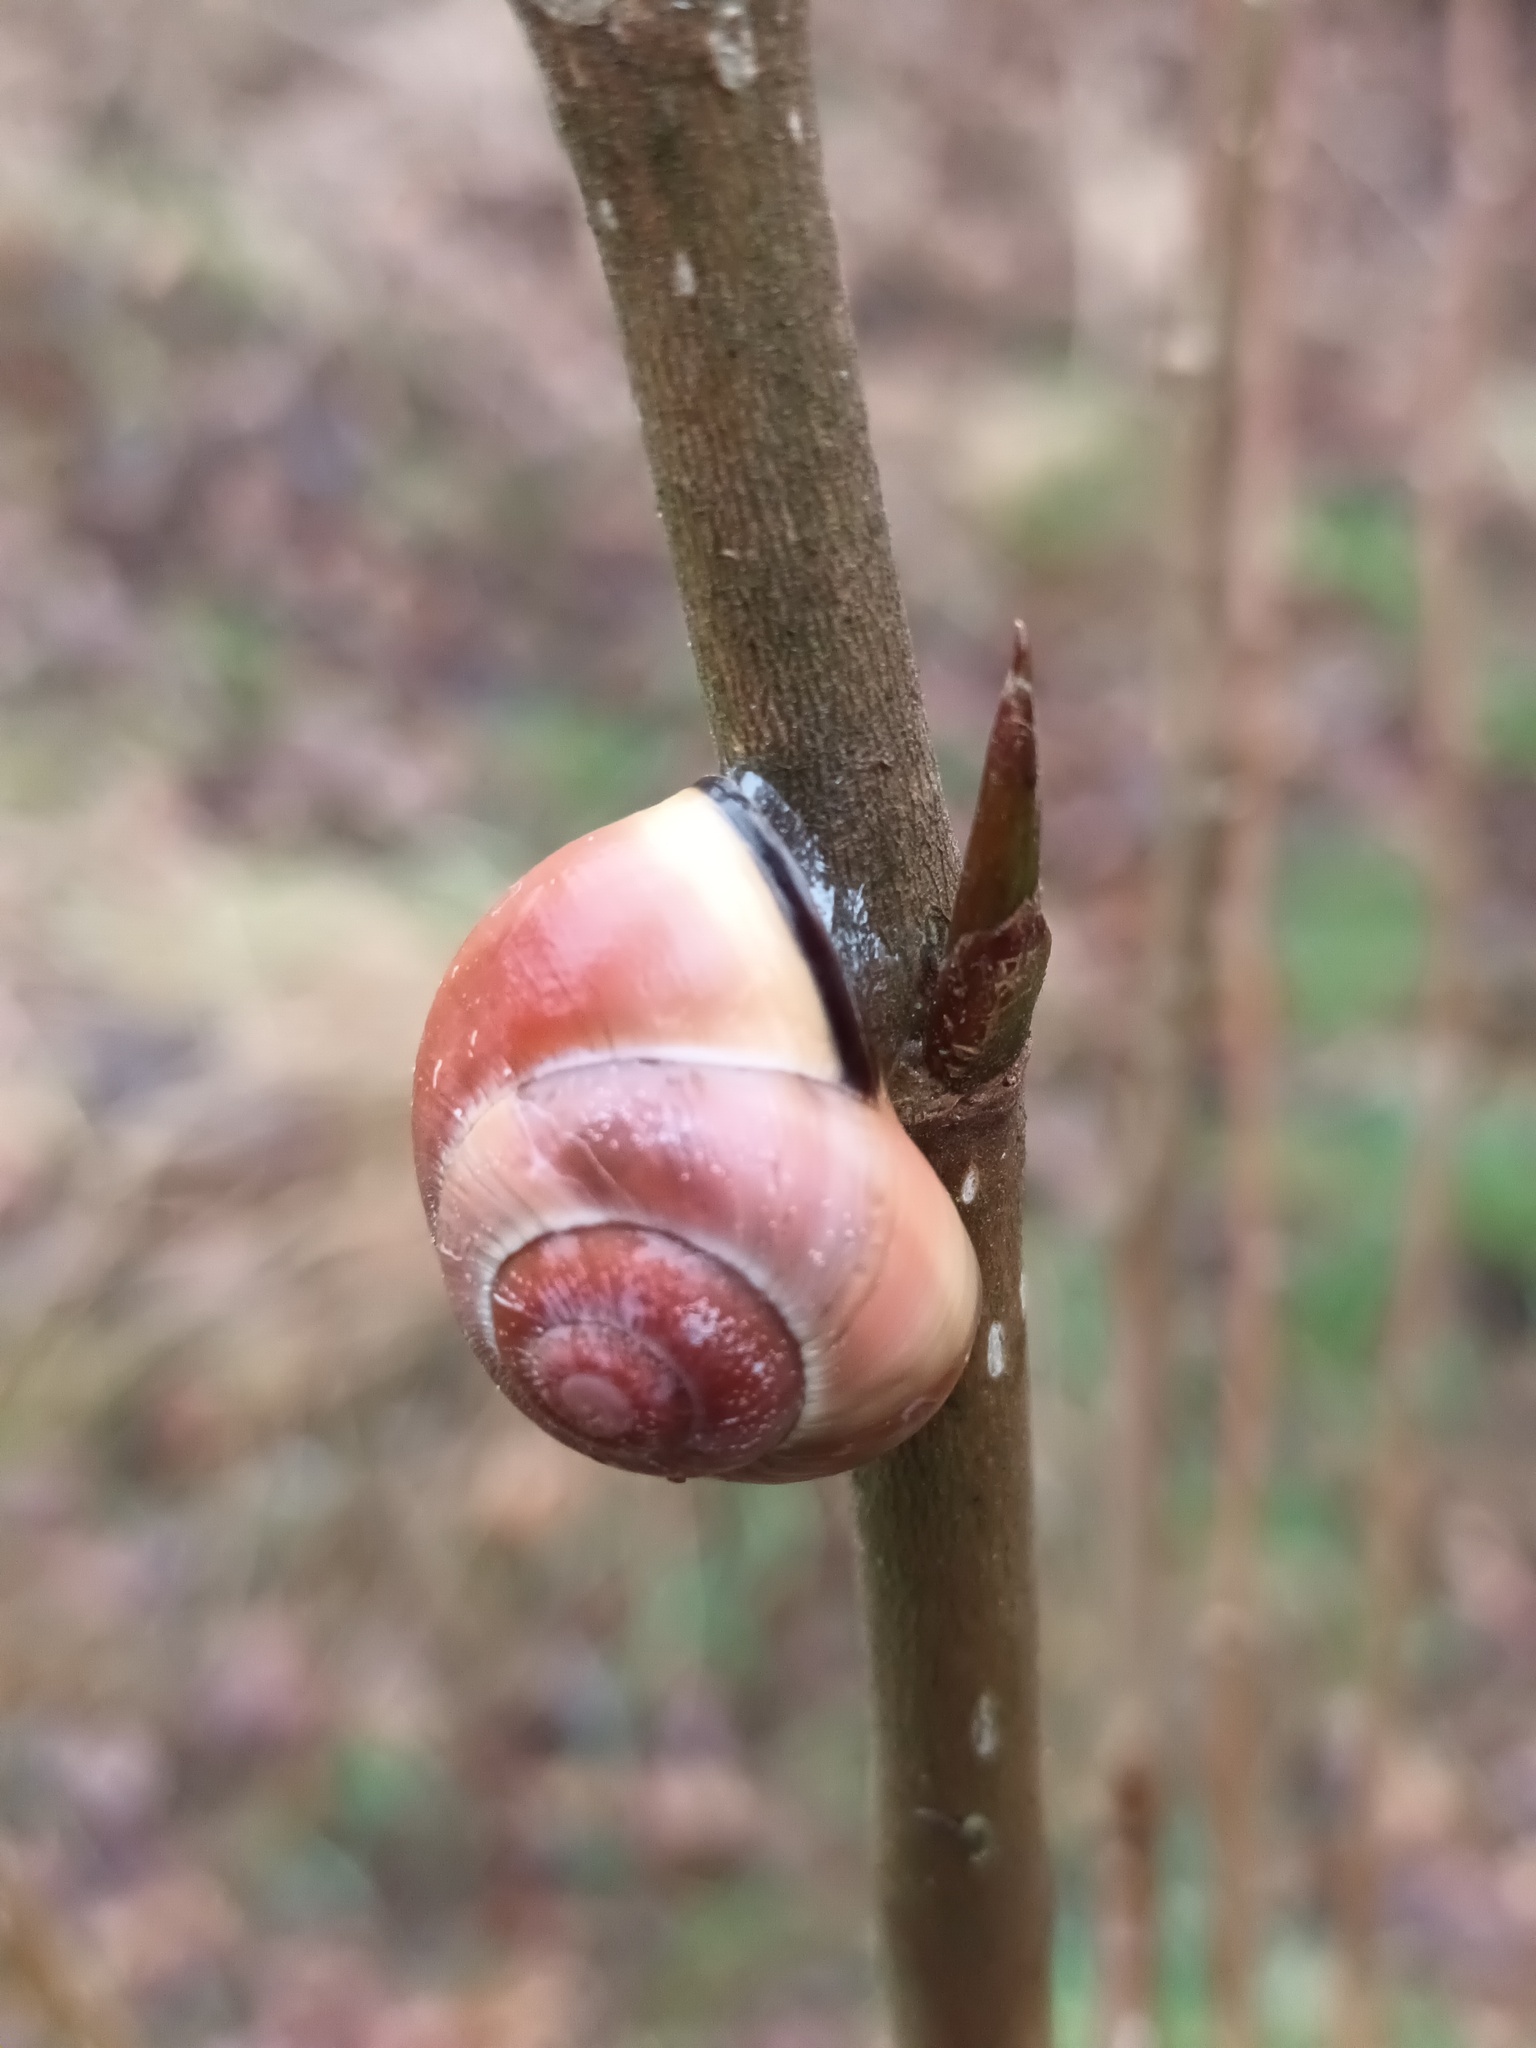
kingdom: Animalia
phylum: Mollusca
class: Gastropoda
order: Stylommatophora
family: Helicidae
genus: Cepaea
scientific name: Cepaea nemoralis
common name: Grovesnail
